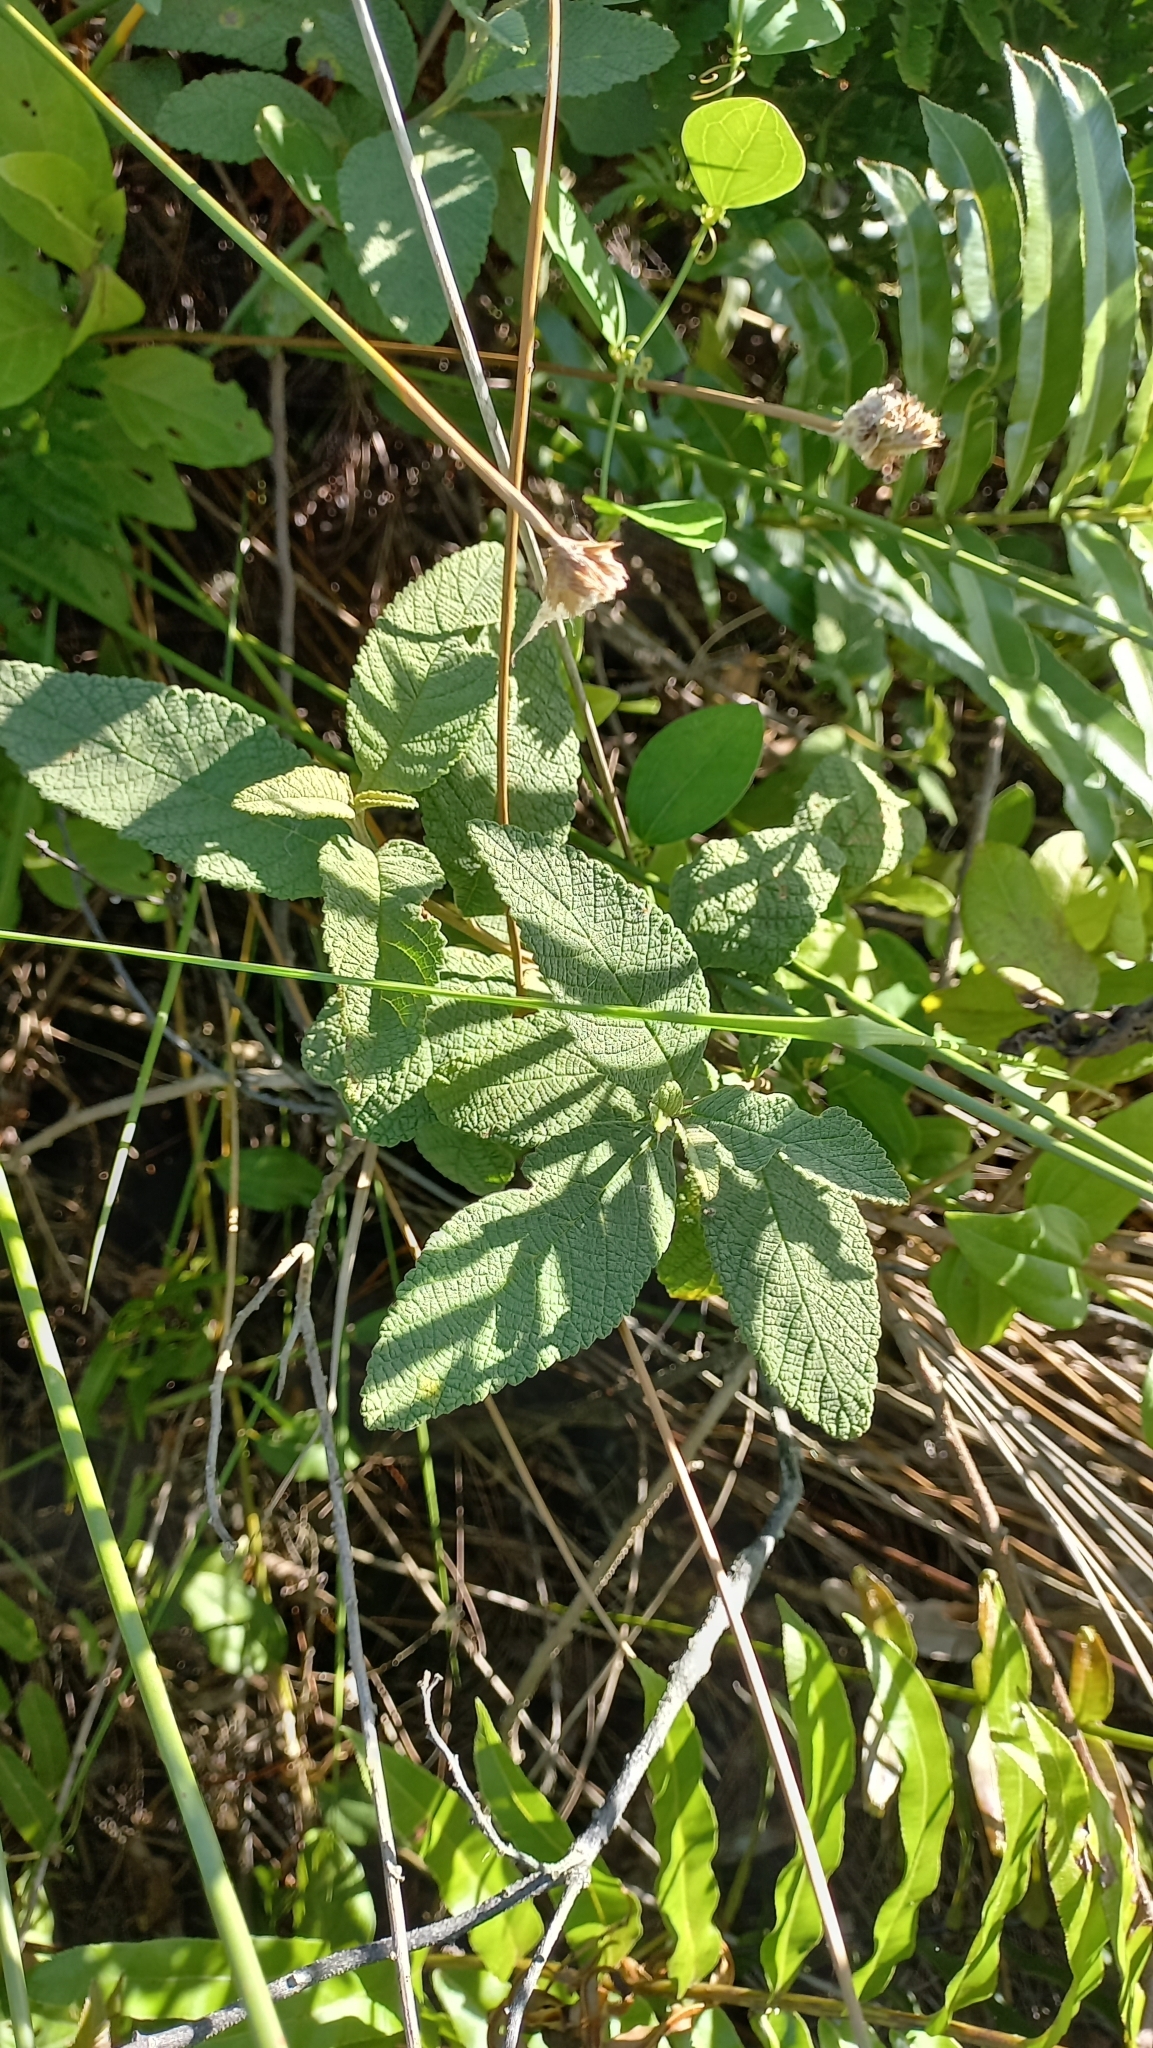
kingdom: Plantae
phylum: Tracheophyta
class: Magnoliopsida
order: Boraginales
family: Cordiaceae
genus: Varronia
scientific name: Varronia curassavica
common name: Black sage
